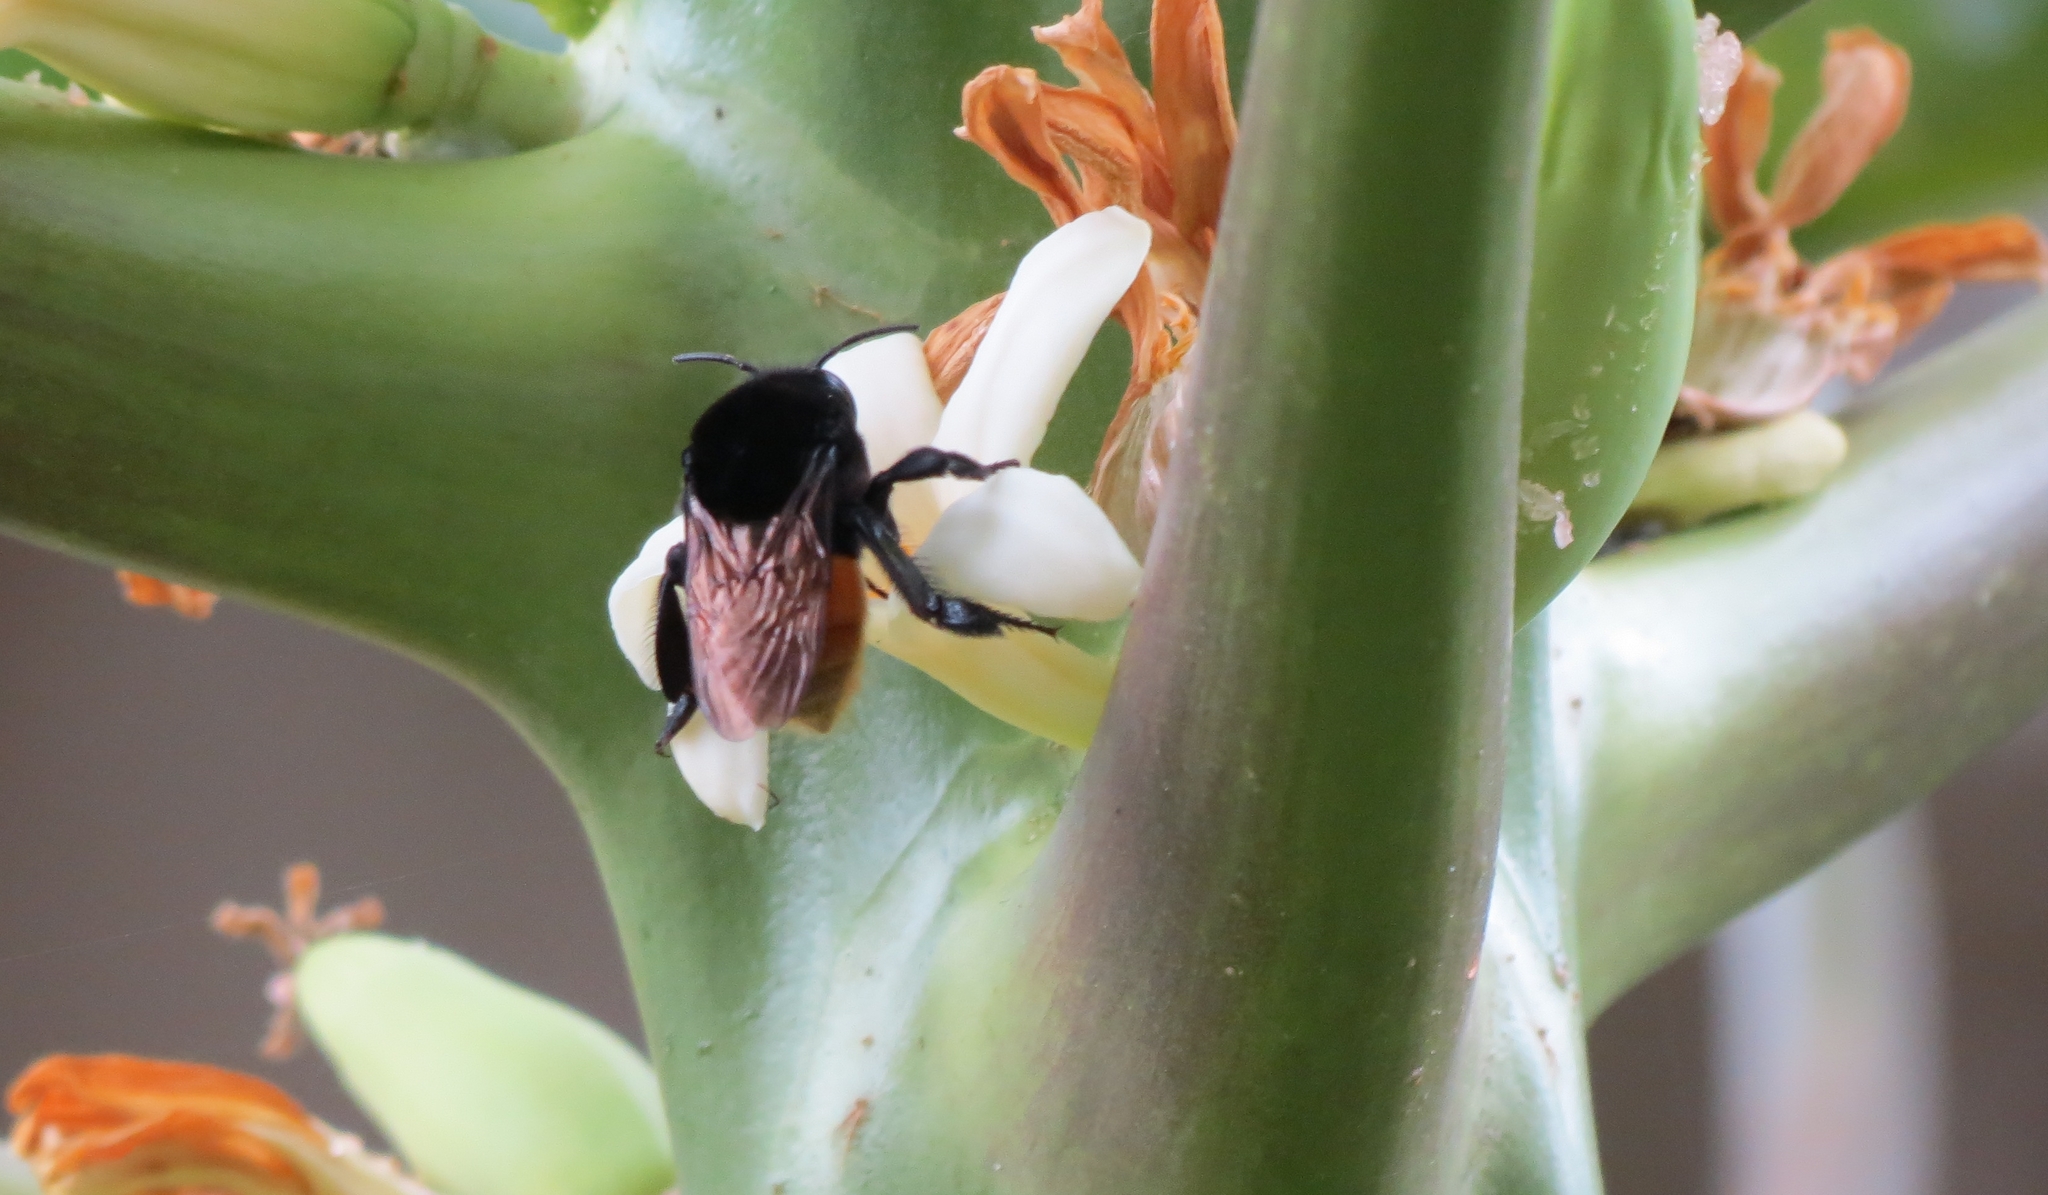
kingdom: Animalia
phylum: Arthropoda
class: Insecta
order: Hymenoptera
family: Apidae
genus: Eulaema
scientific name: Eulaema polychroma
